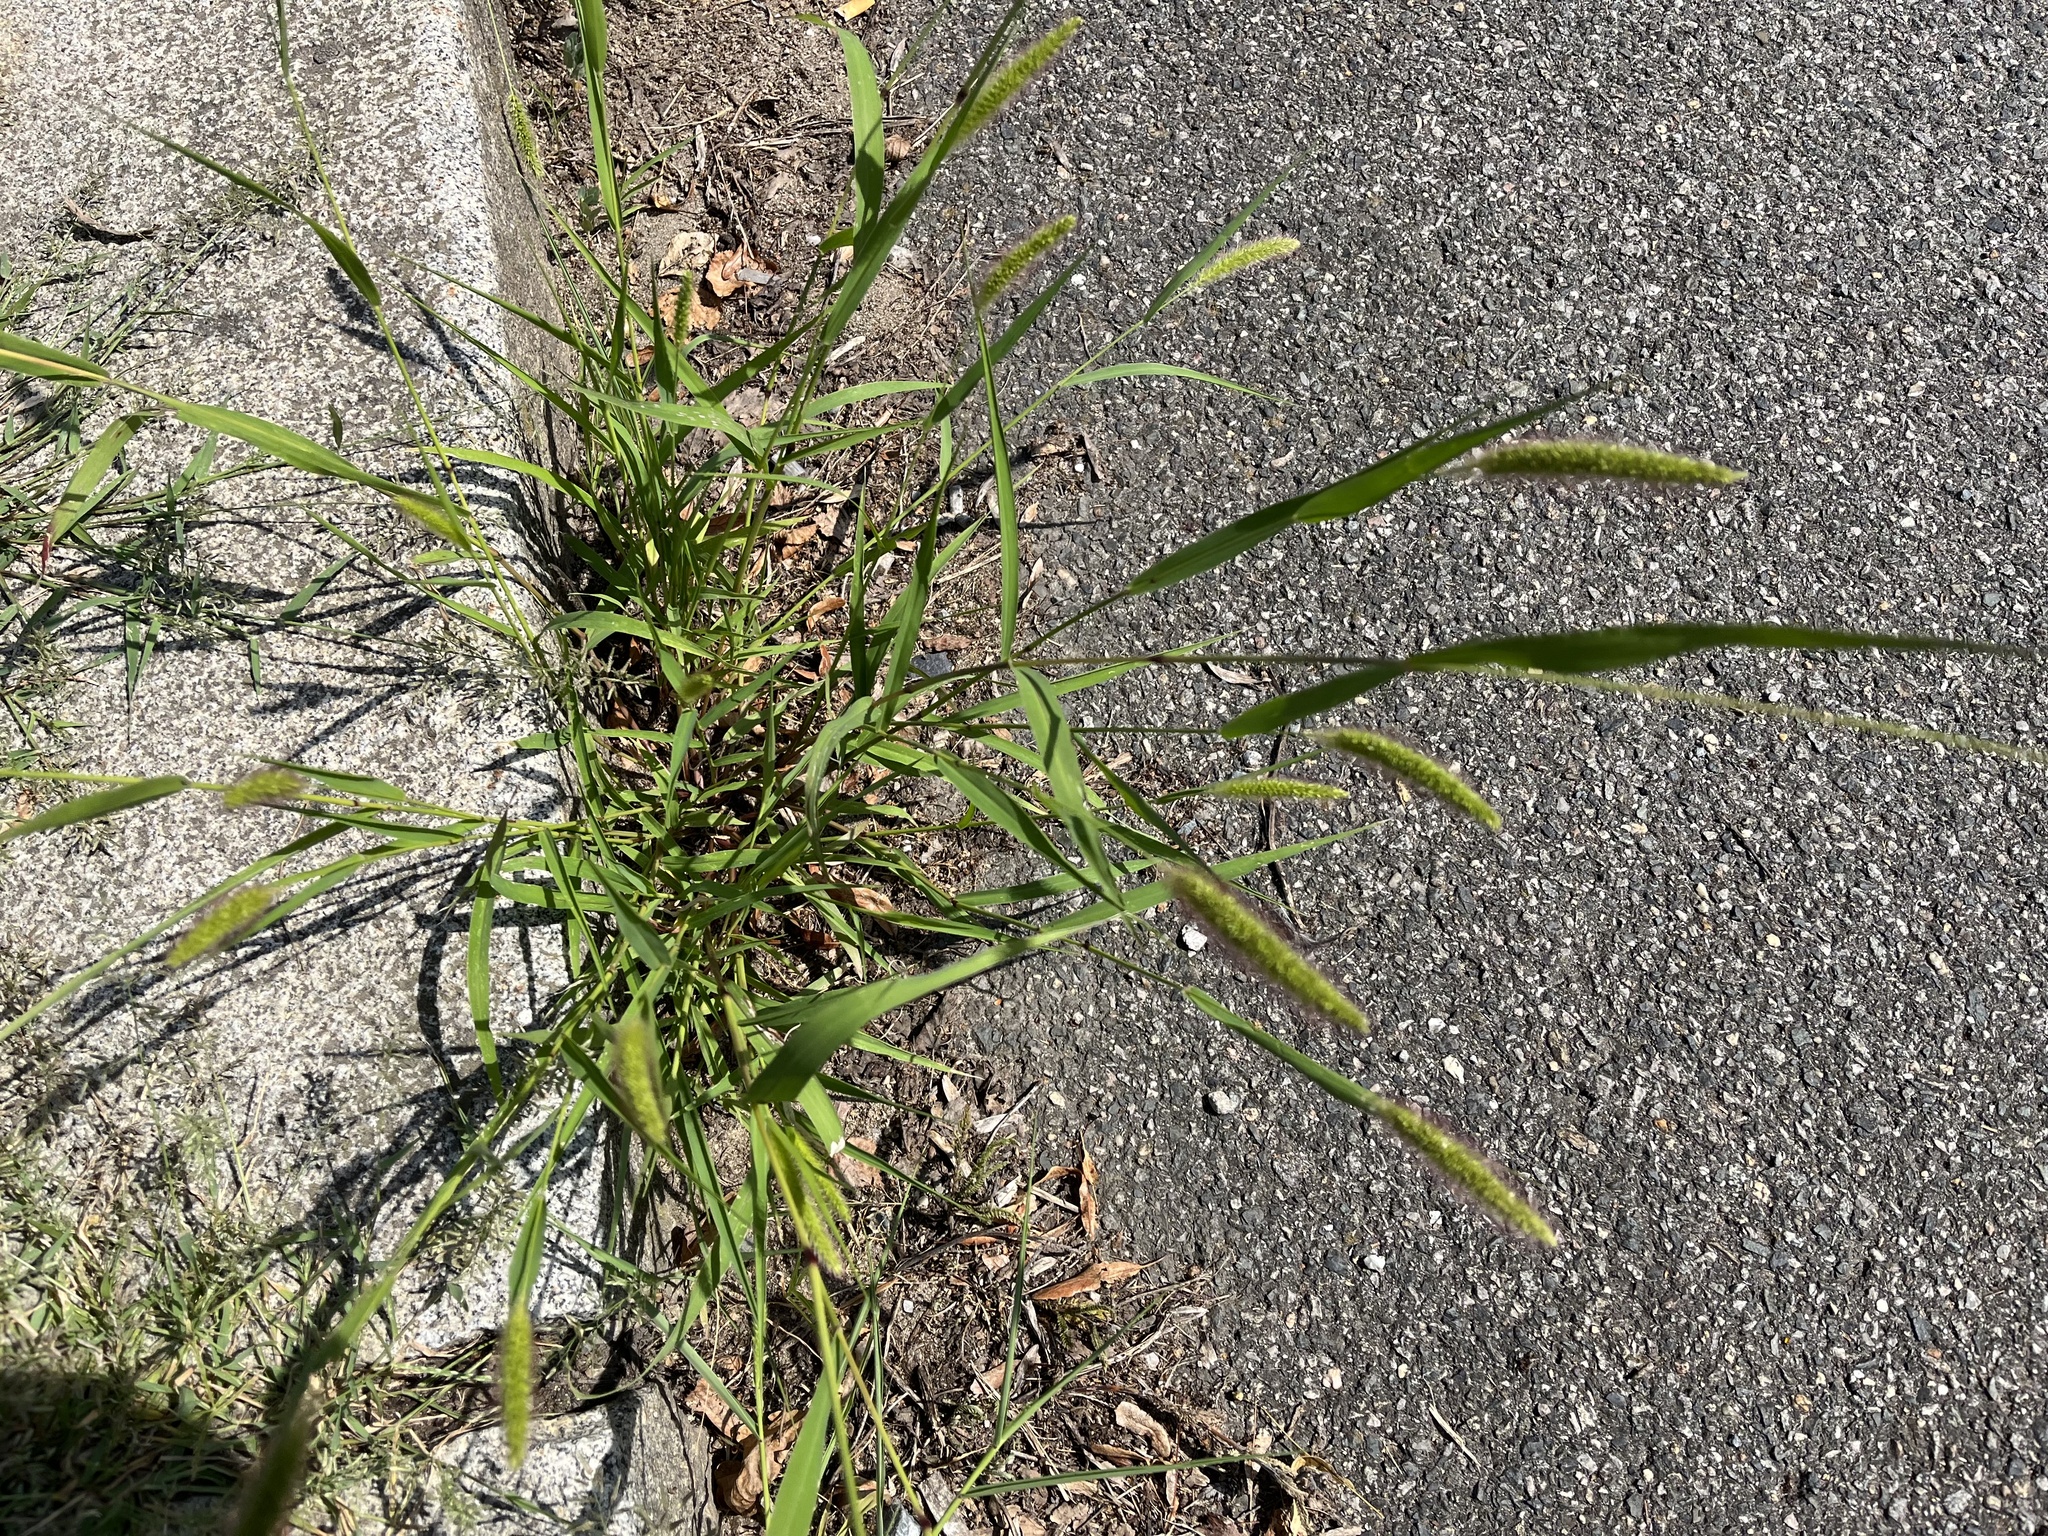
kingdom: Plantae
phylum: Tracheophyta
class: Liliopsida
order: Poales
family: Poaceae
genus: Setaria
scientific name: Setaria viridis
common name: Green bristlegrass
